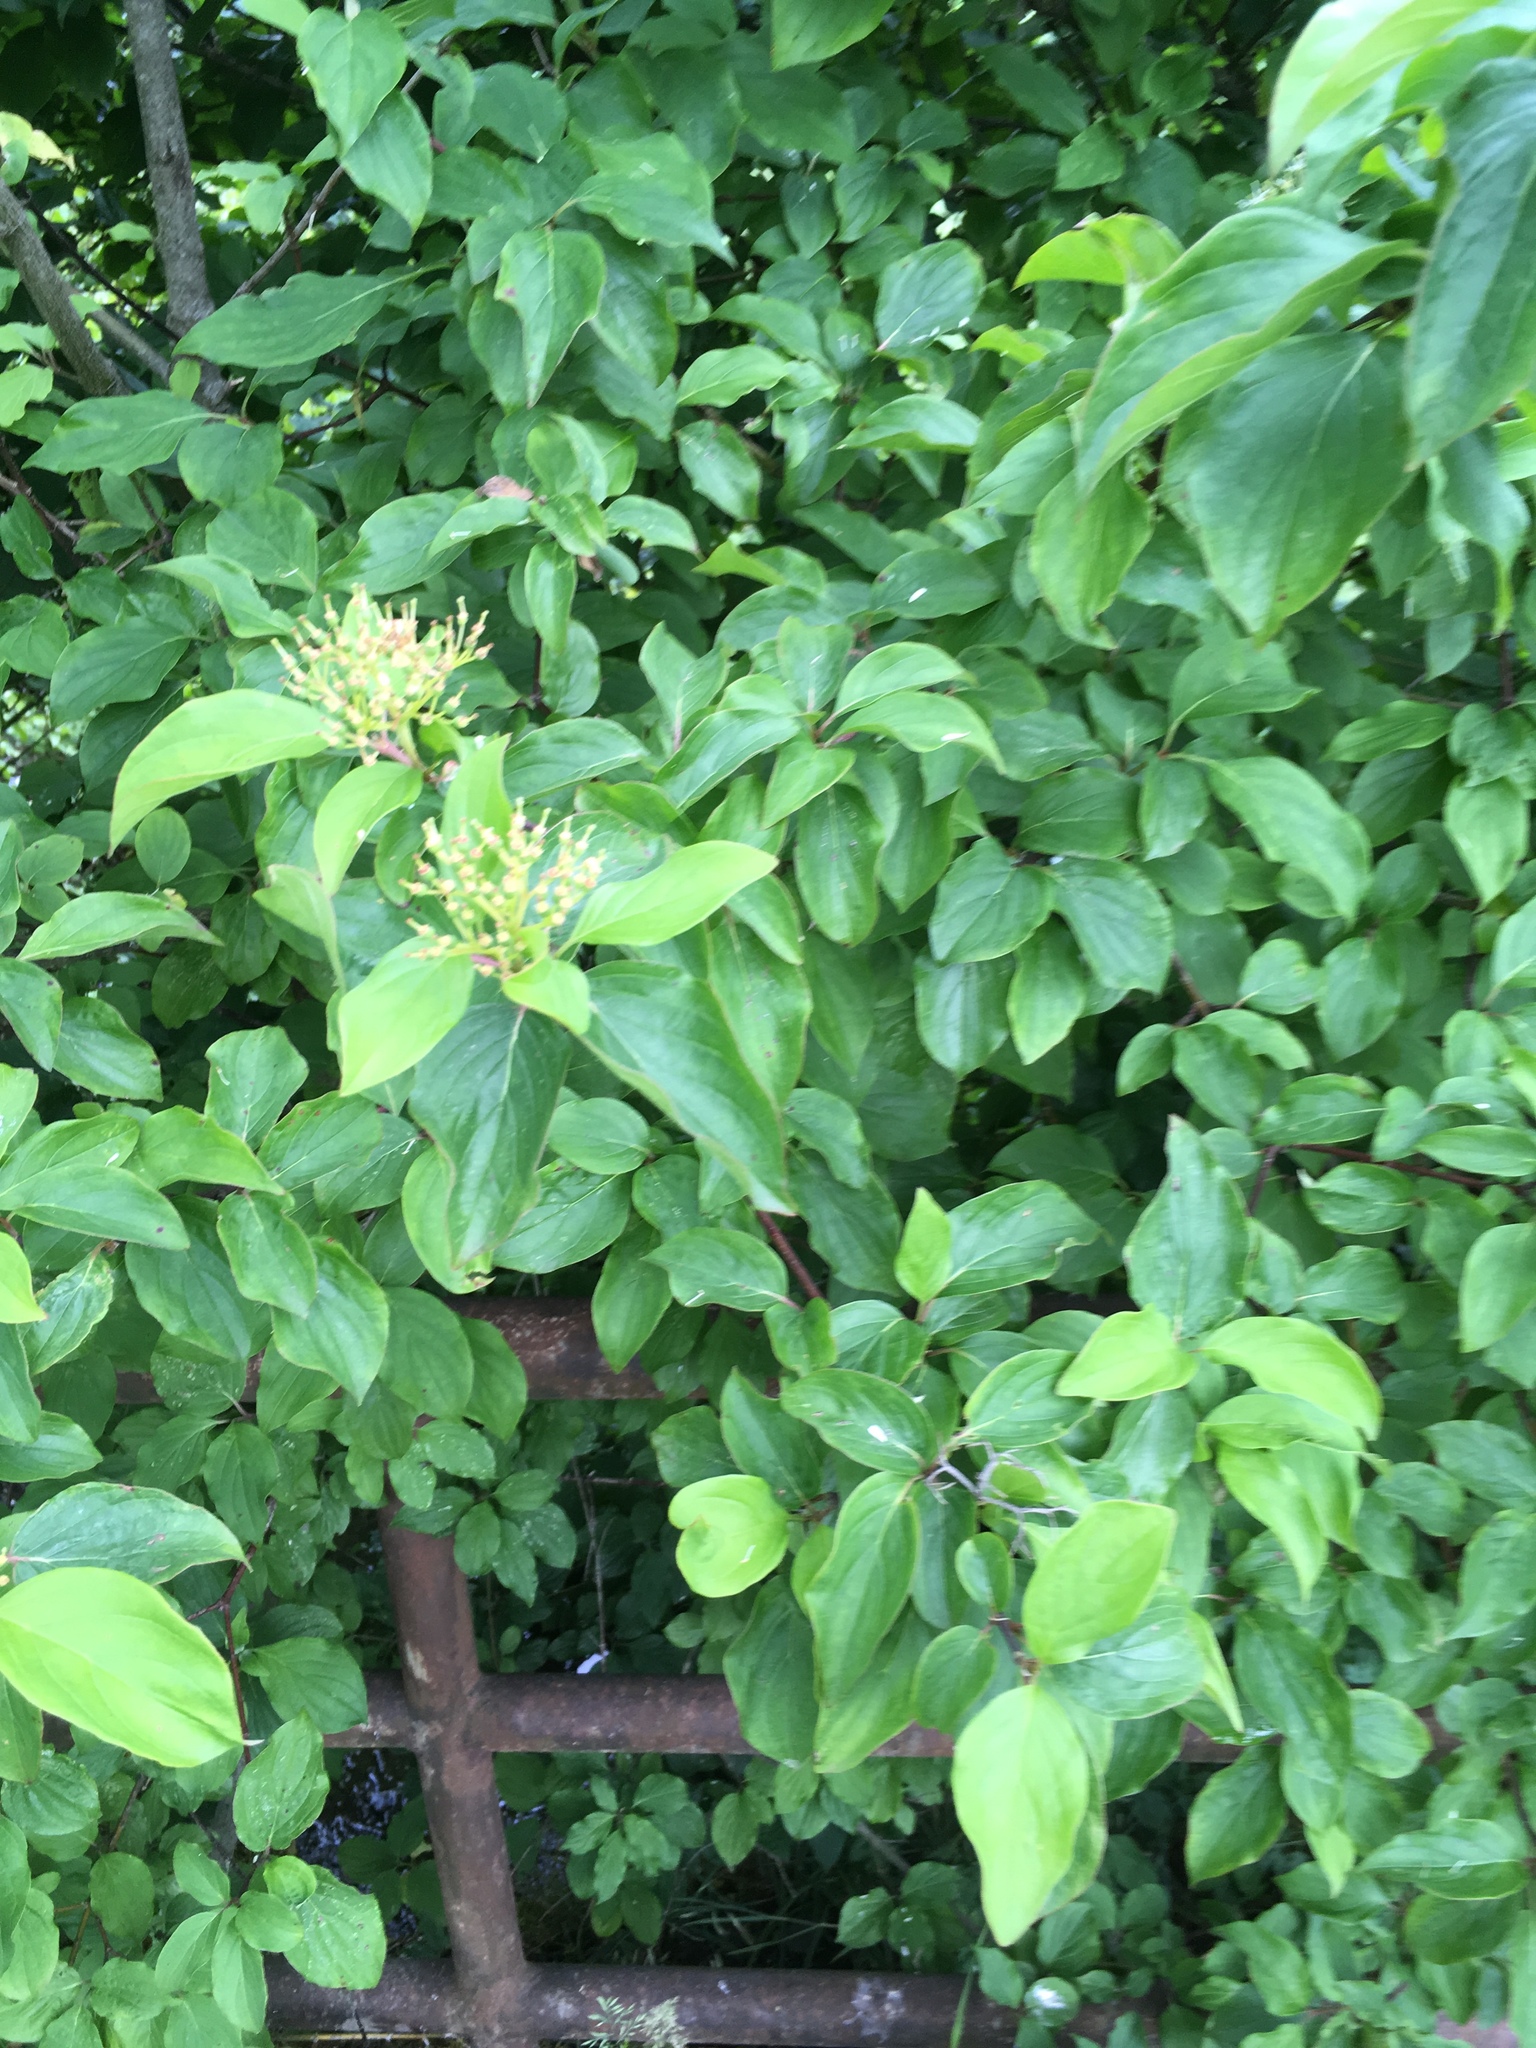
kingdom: Plantae
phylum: Tracheophyta
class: Magnoliopsida
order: Cornales
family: Cornaceae
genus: Cornus
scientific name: Cornus sanguinea
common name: Dogwood
